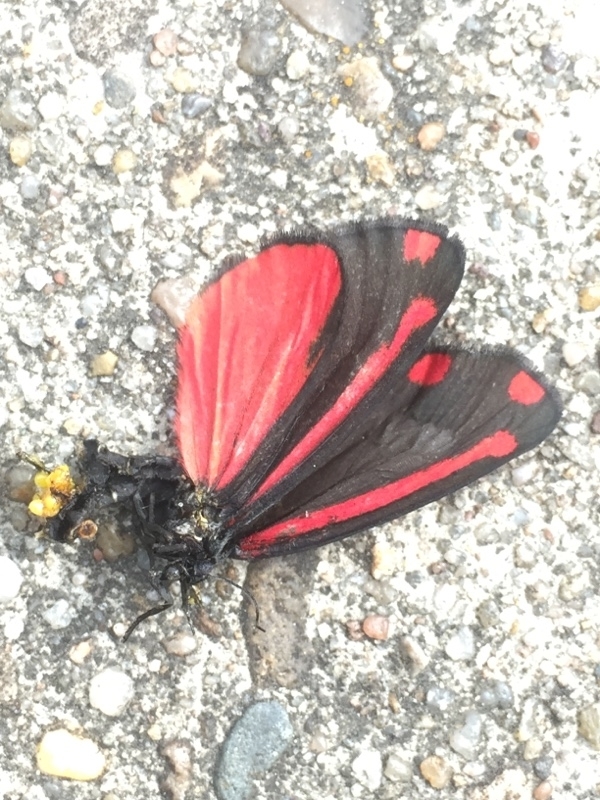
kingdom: Animalia
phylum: Arthropoda
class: Insecta
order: Lepidoptera
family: Erebidae
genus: Tyria
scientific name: Tyria jacobaeae
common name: Cinnabar
